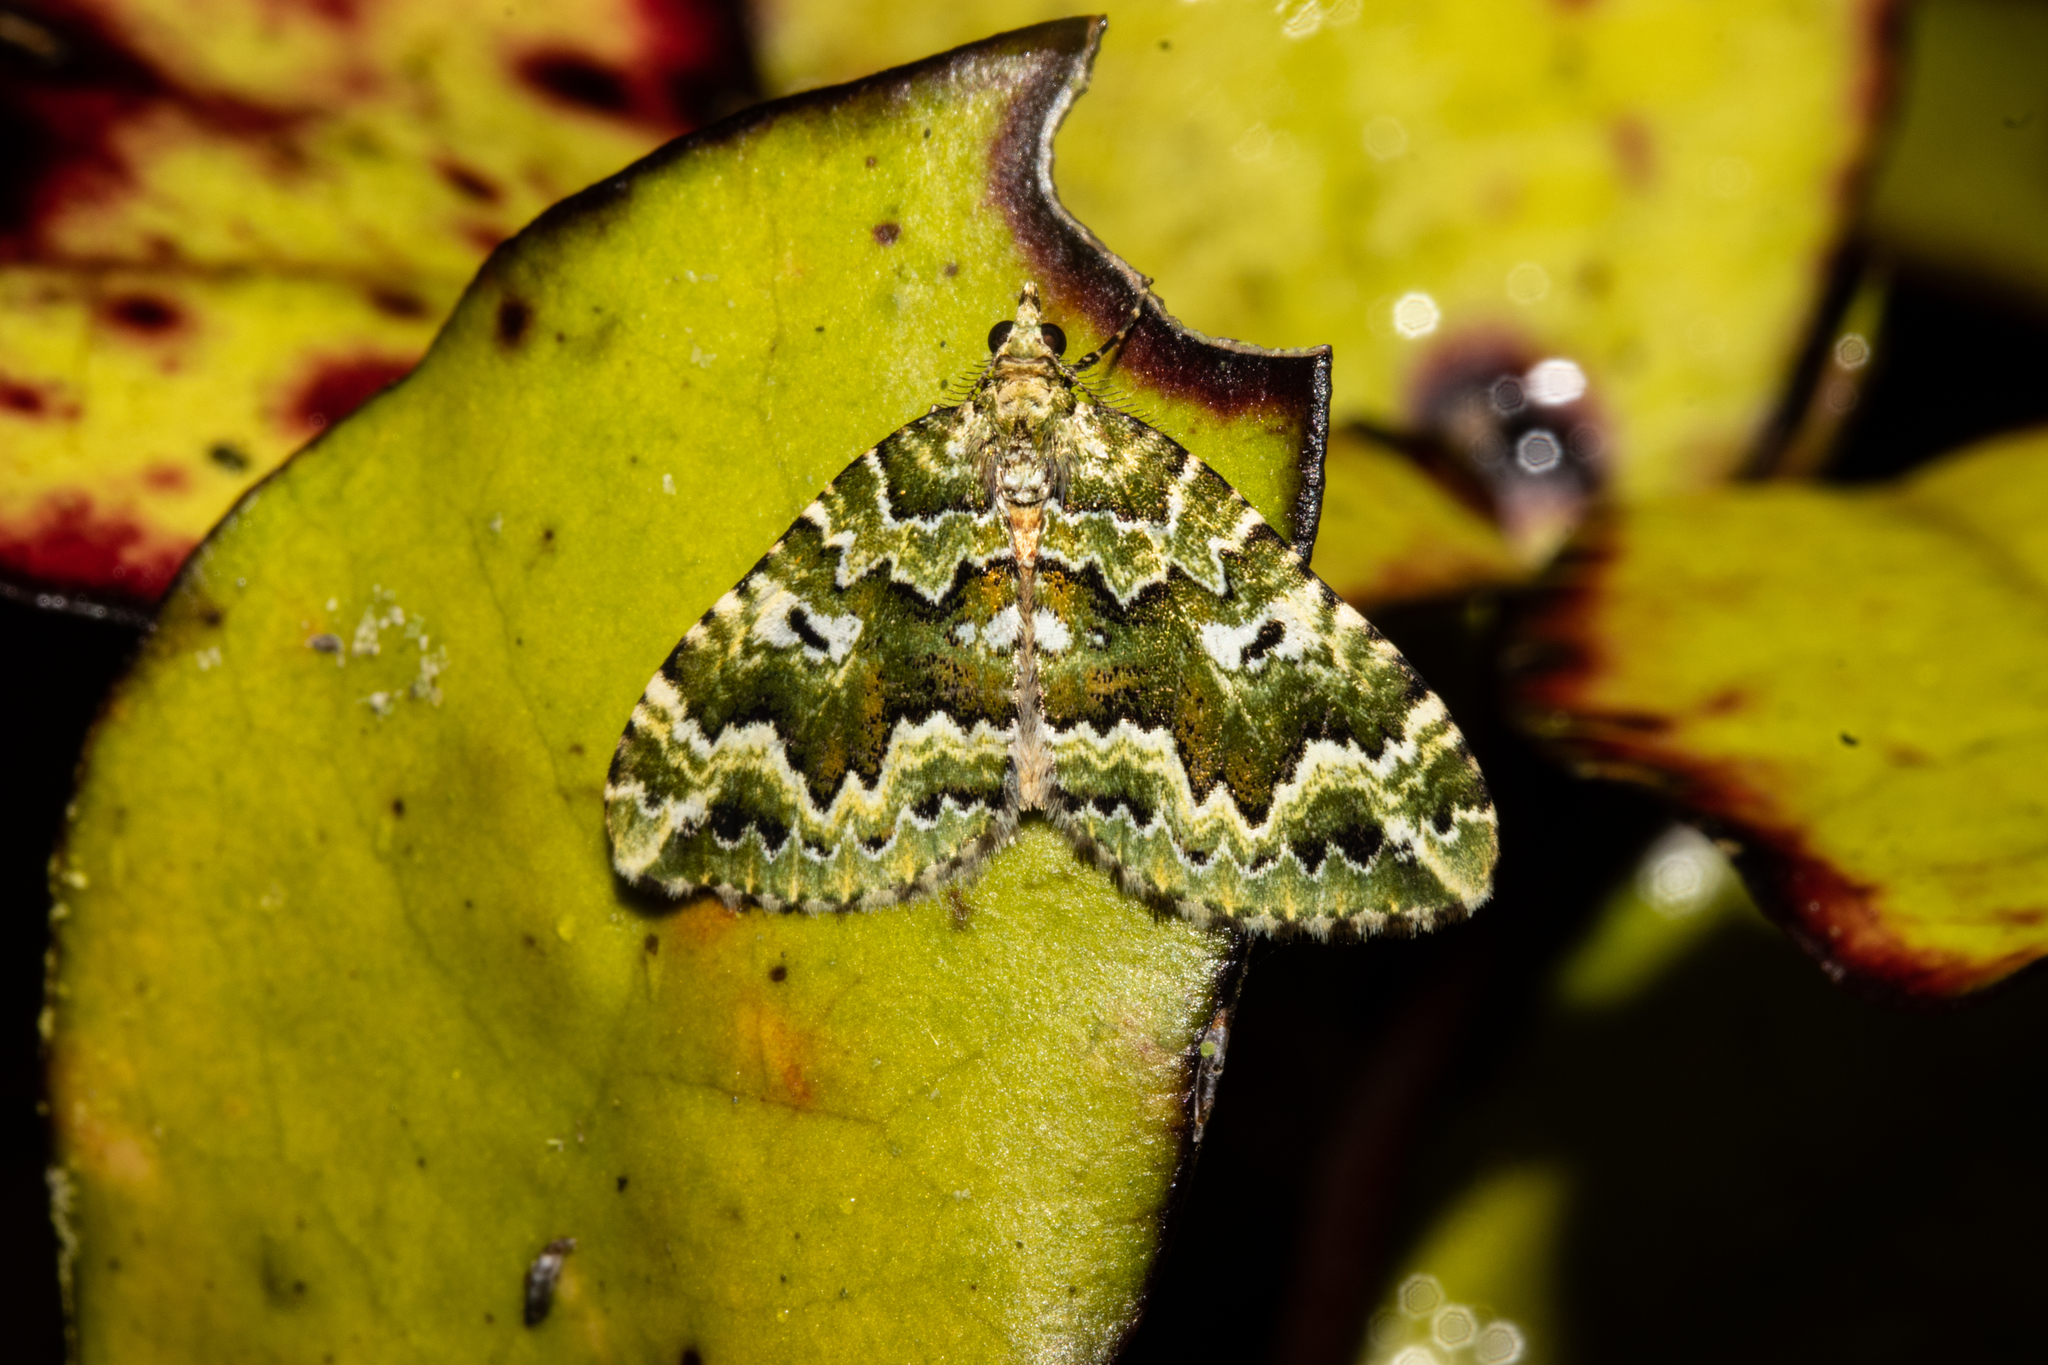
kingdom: Animalia
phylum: Arthropoda
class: Insecta
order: Lepidoptera
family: Geometridae
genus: Asaphodes
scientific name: Asaphodes beata
